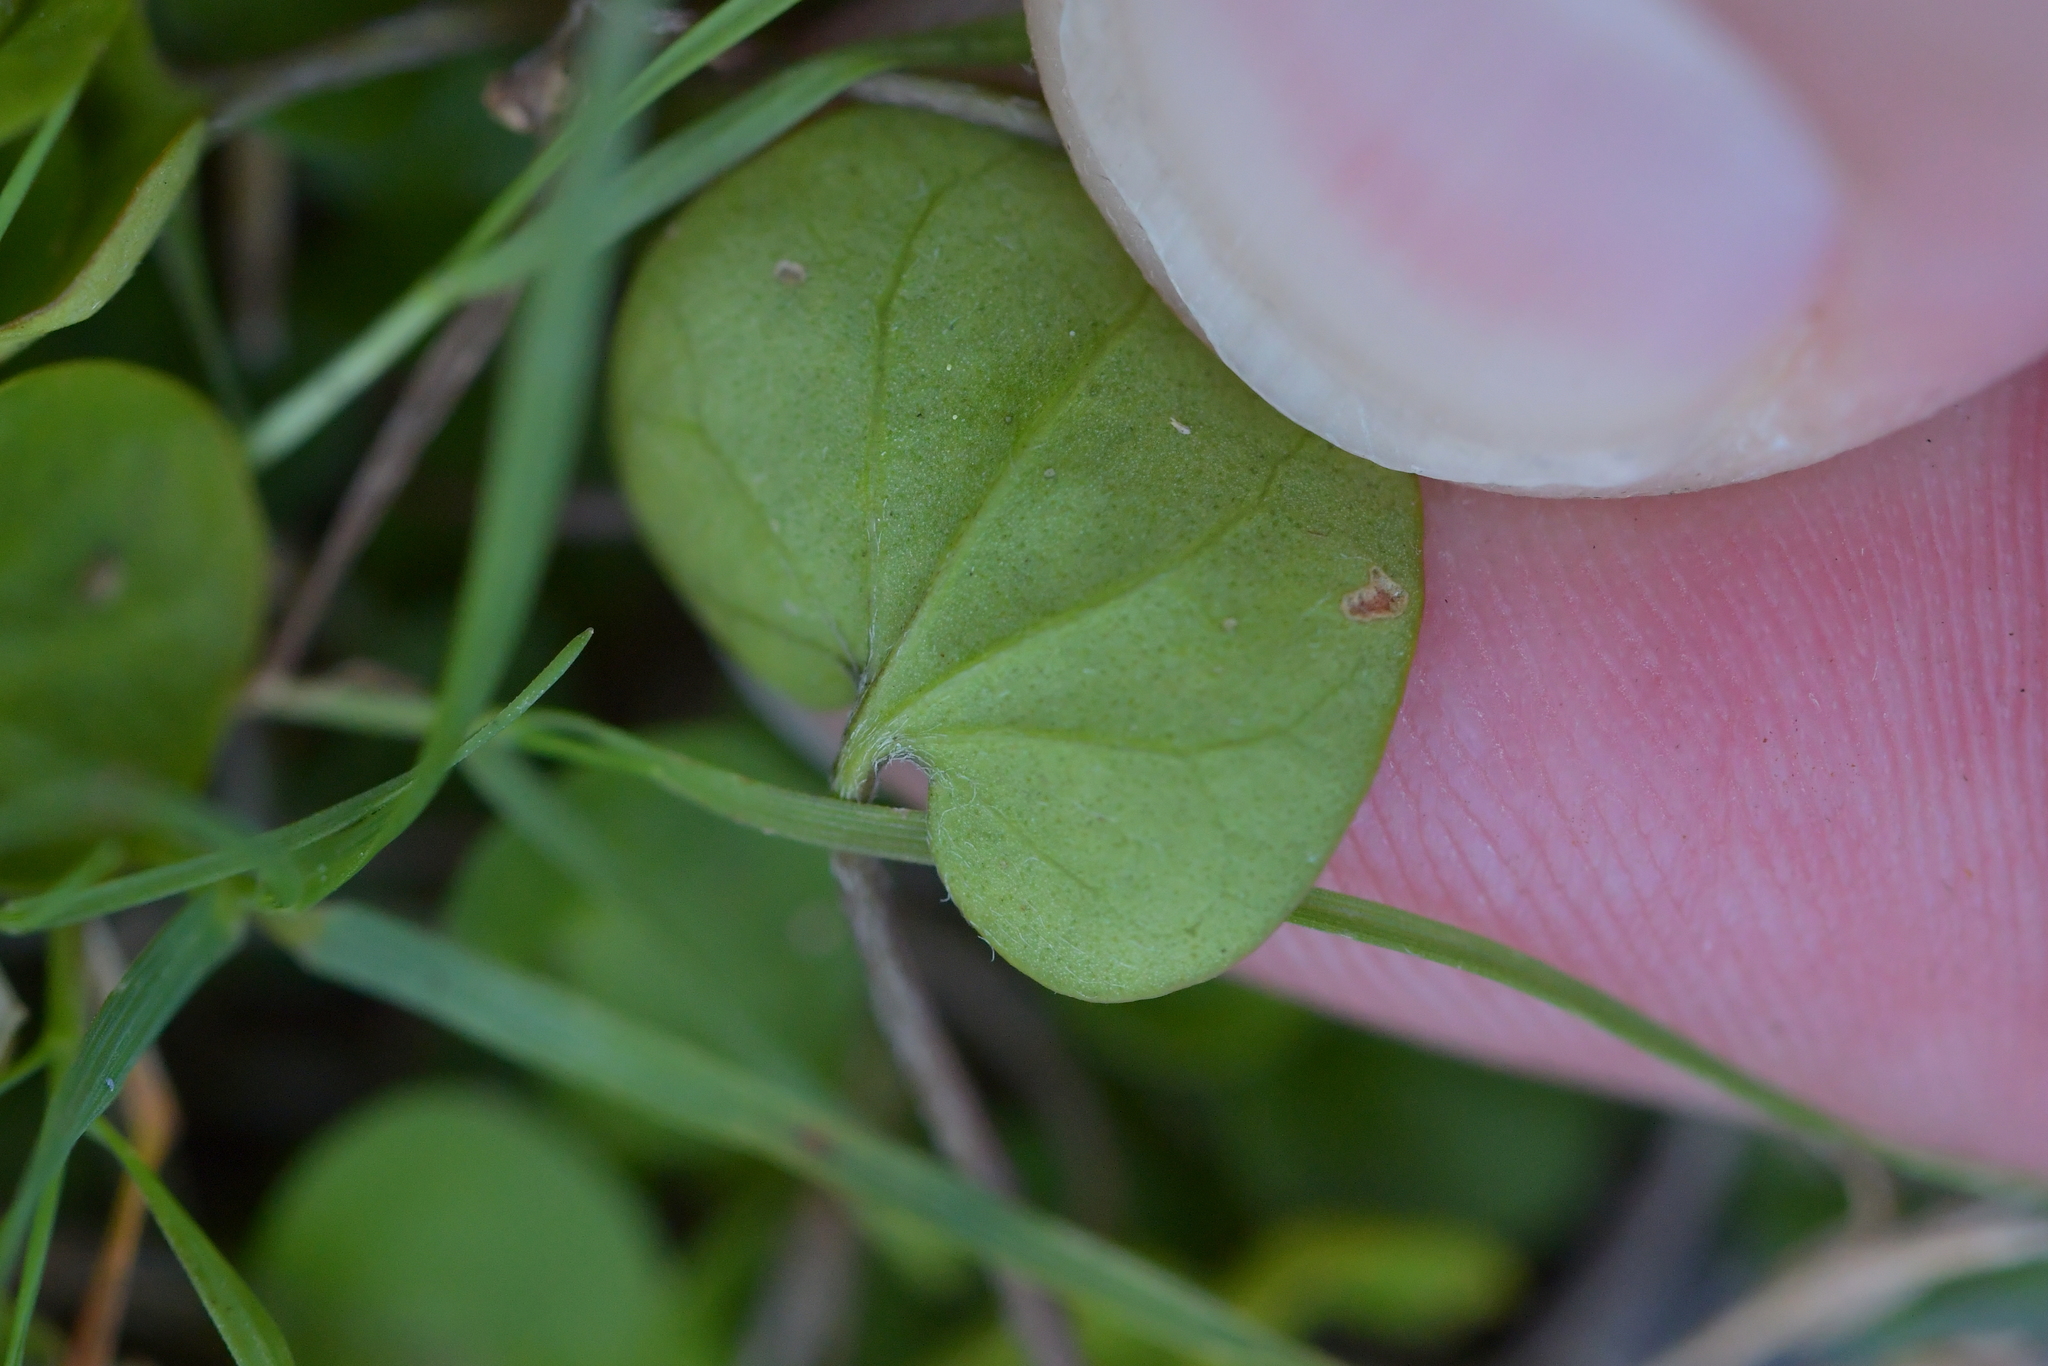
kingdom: Plantae
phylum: Tracheophyta
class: Magnoliopsida
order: Solanales
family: Convolvulaceae
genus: Dichondra
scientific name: Dichondra repens
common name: Kidneyweed
